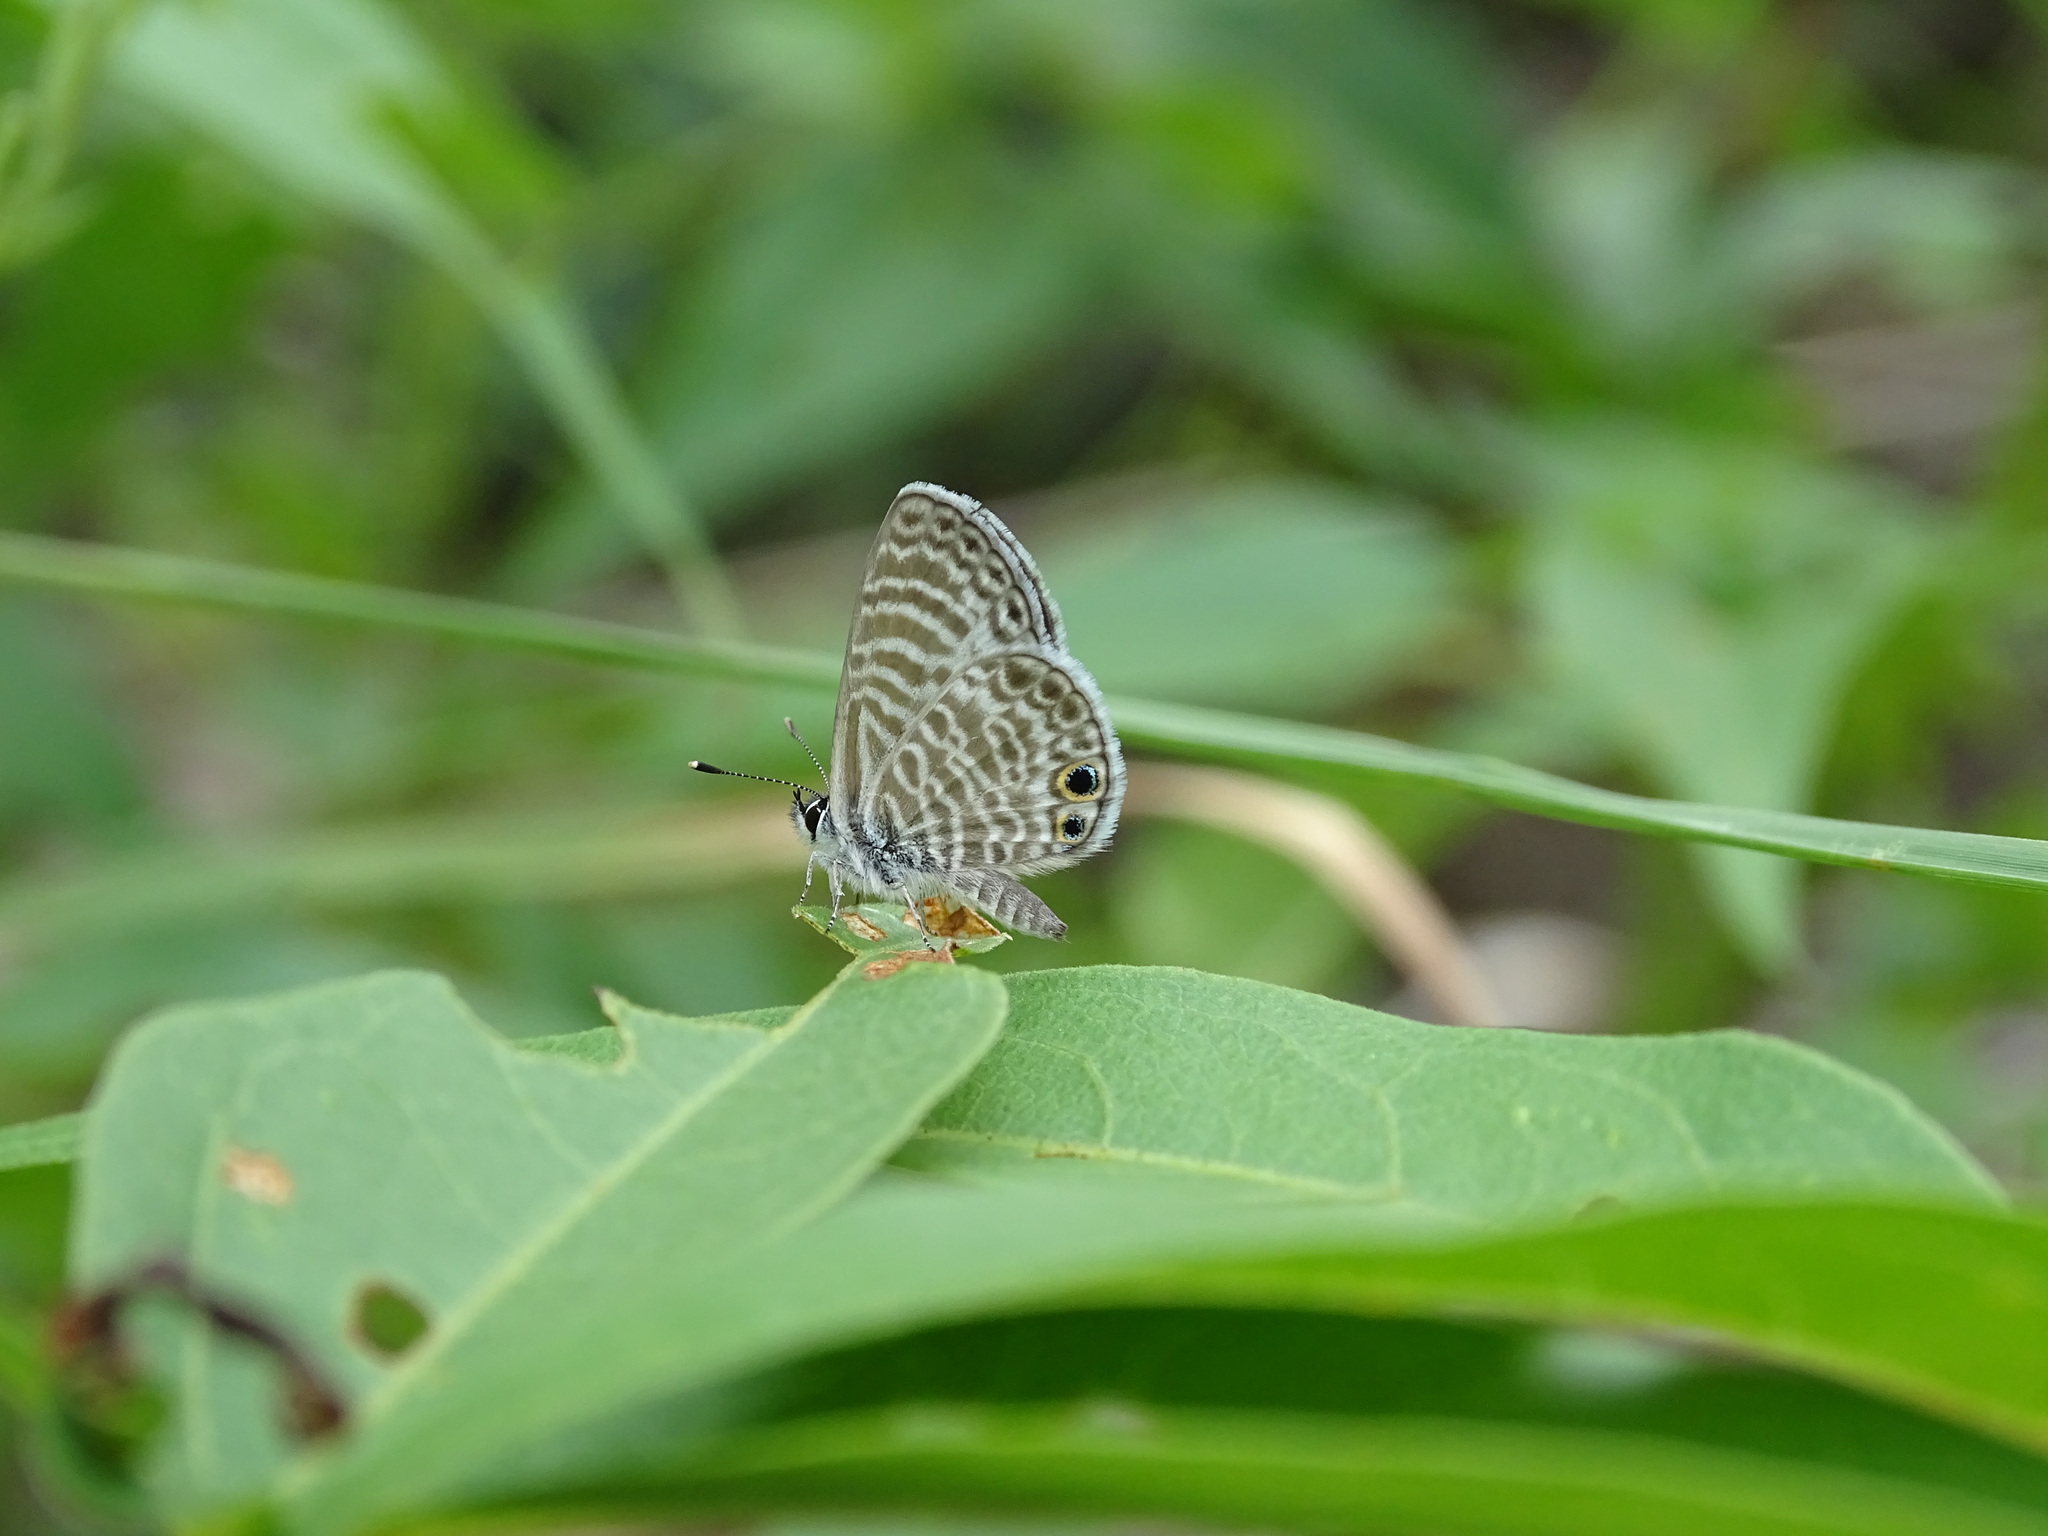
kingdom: Animalia
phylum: Arthropoda
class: Insecta
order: Lepidoptera
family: Lycaenidae
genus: Leptotes
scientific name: Leptotes marina
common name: Marine blue
